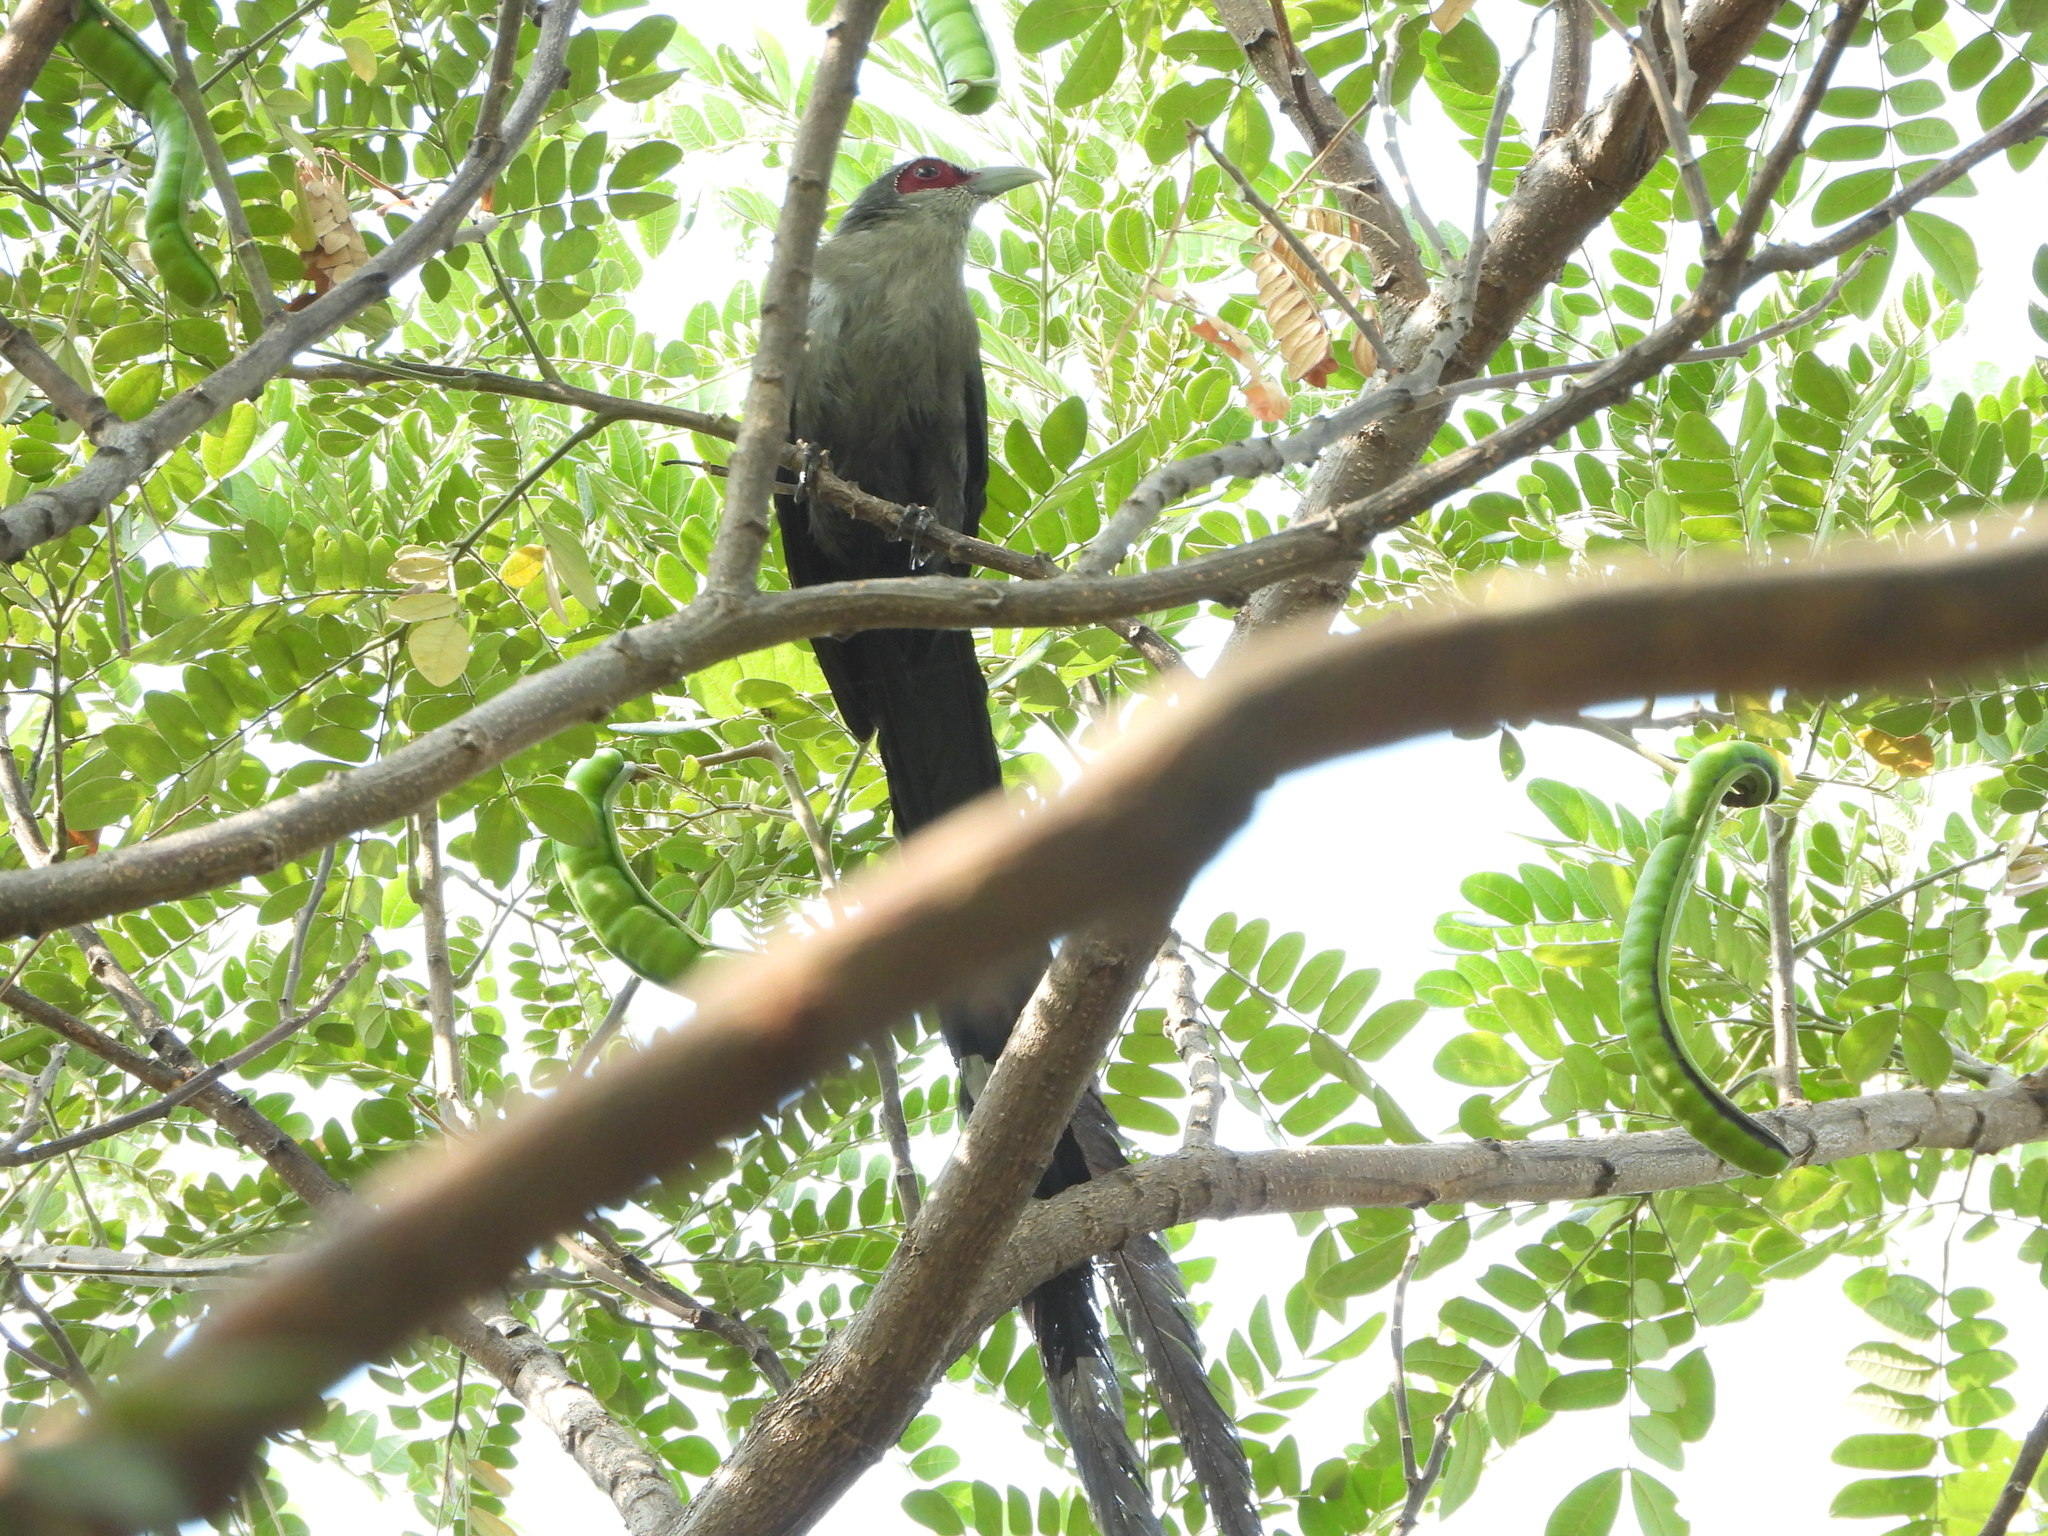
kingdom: Animalia
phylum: Chordata
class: Aves
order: Cuculiformes
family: Cuculidae
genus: Rhopodytes
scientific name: Rhopodytes tristis
